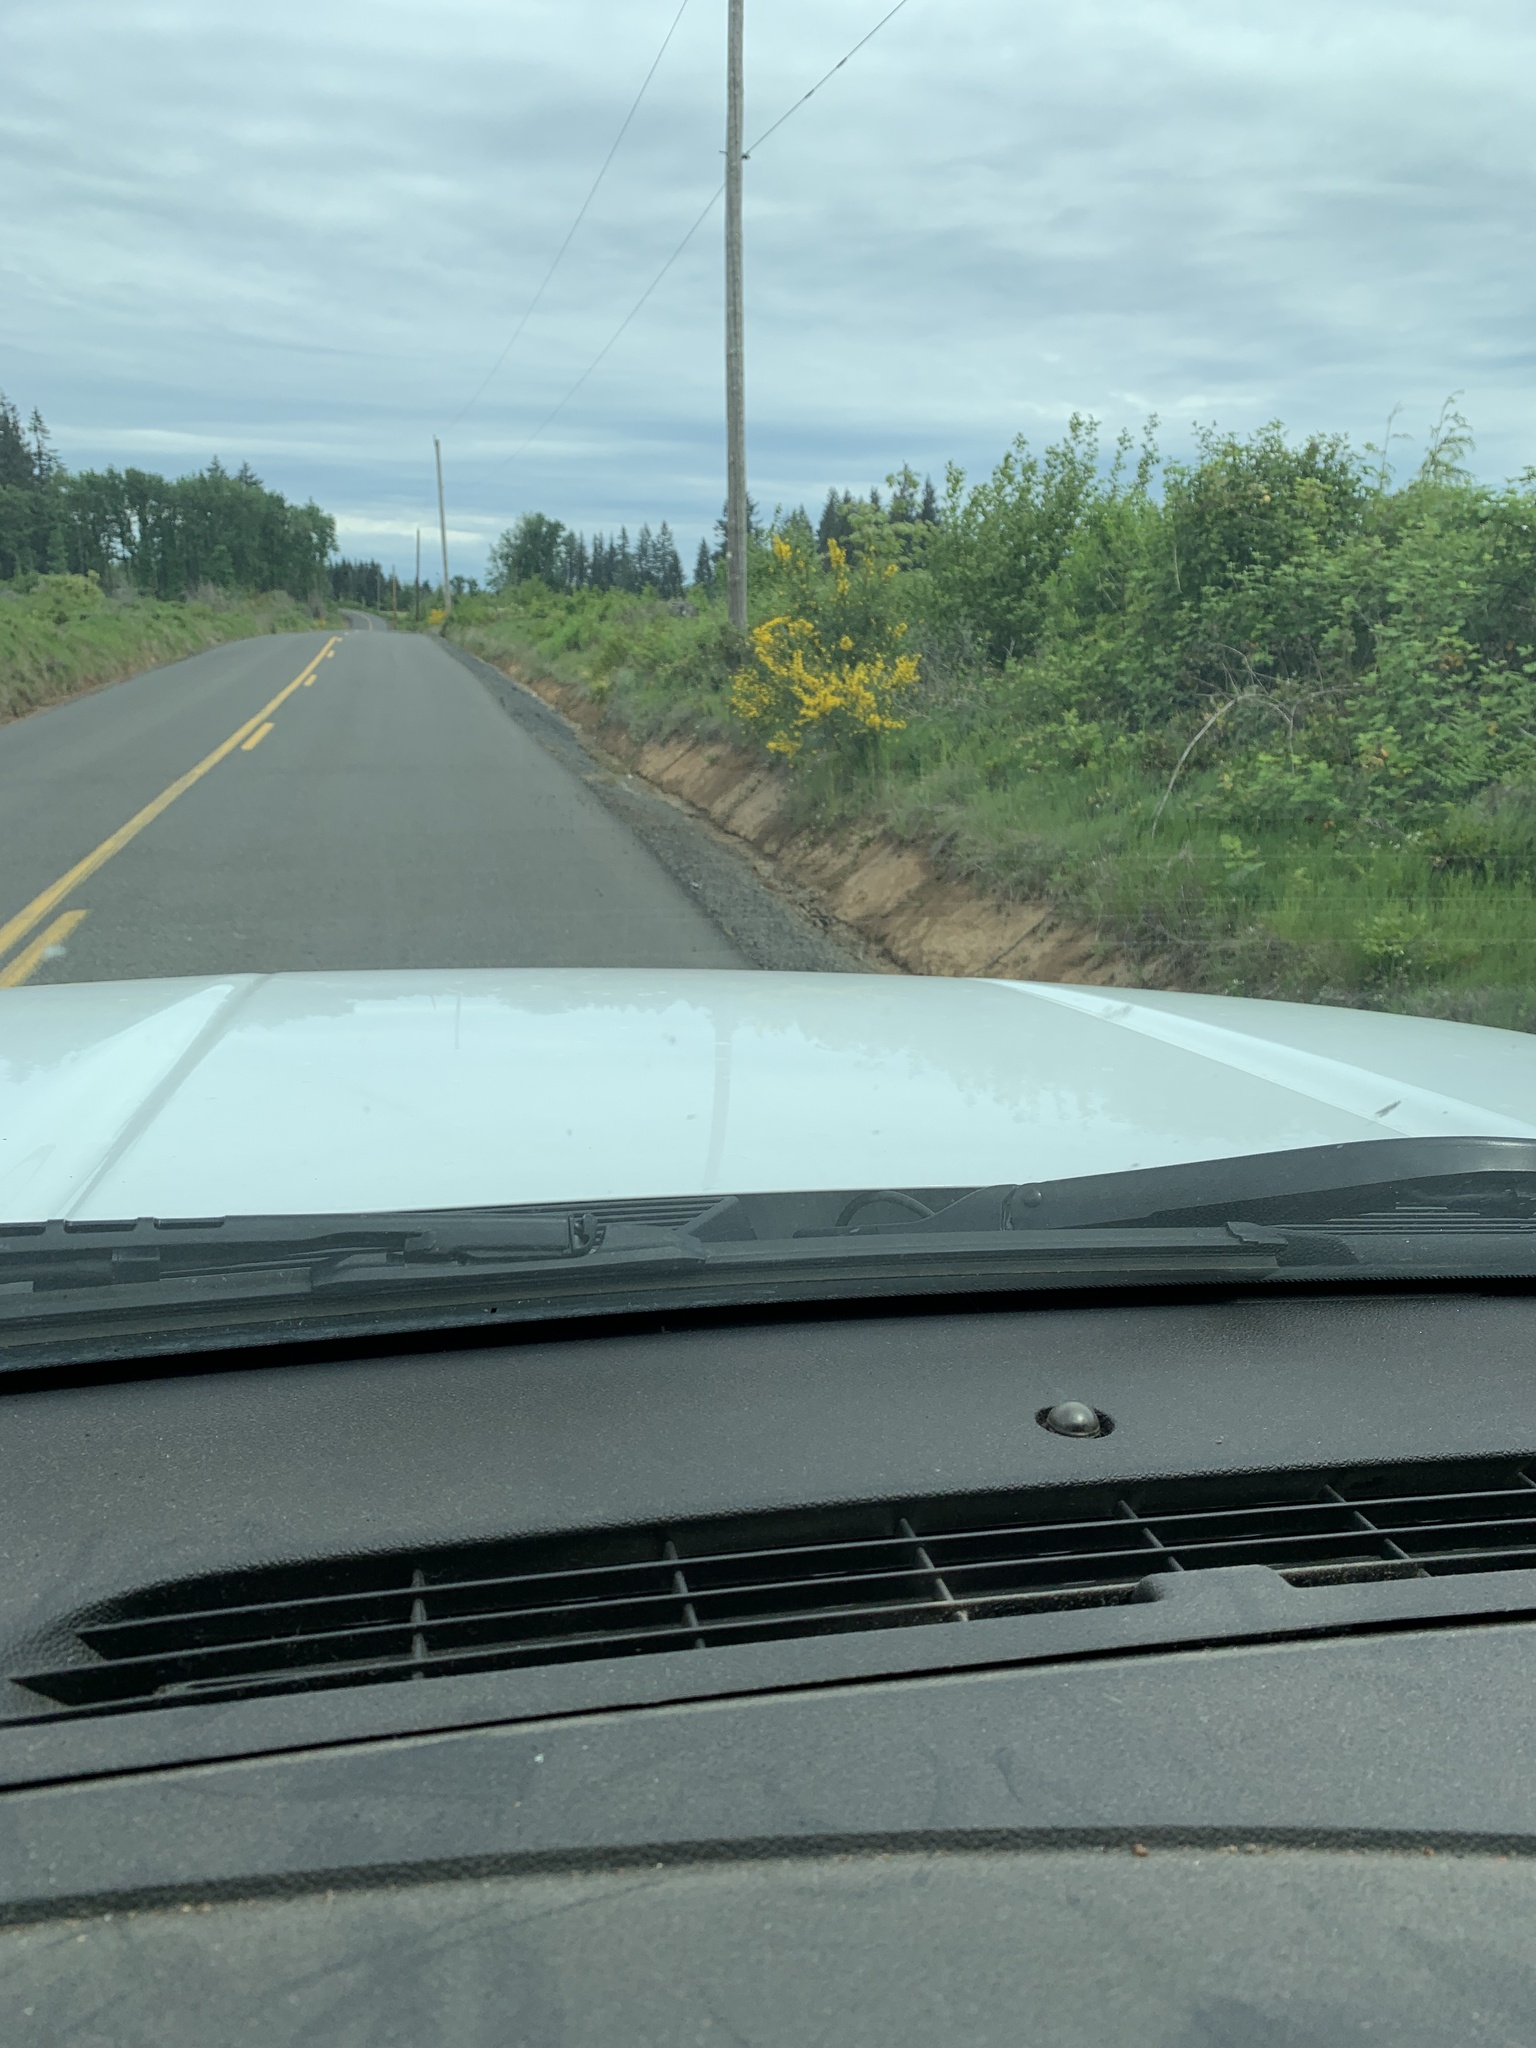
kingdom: Plantae
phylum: Tracheophyta
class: Magnoliopsida
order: Fabales
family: Fabaceae
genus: Cytisus
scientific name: Cytisus scoparius
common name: Scotch broom
